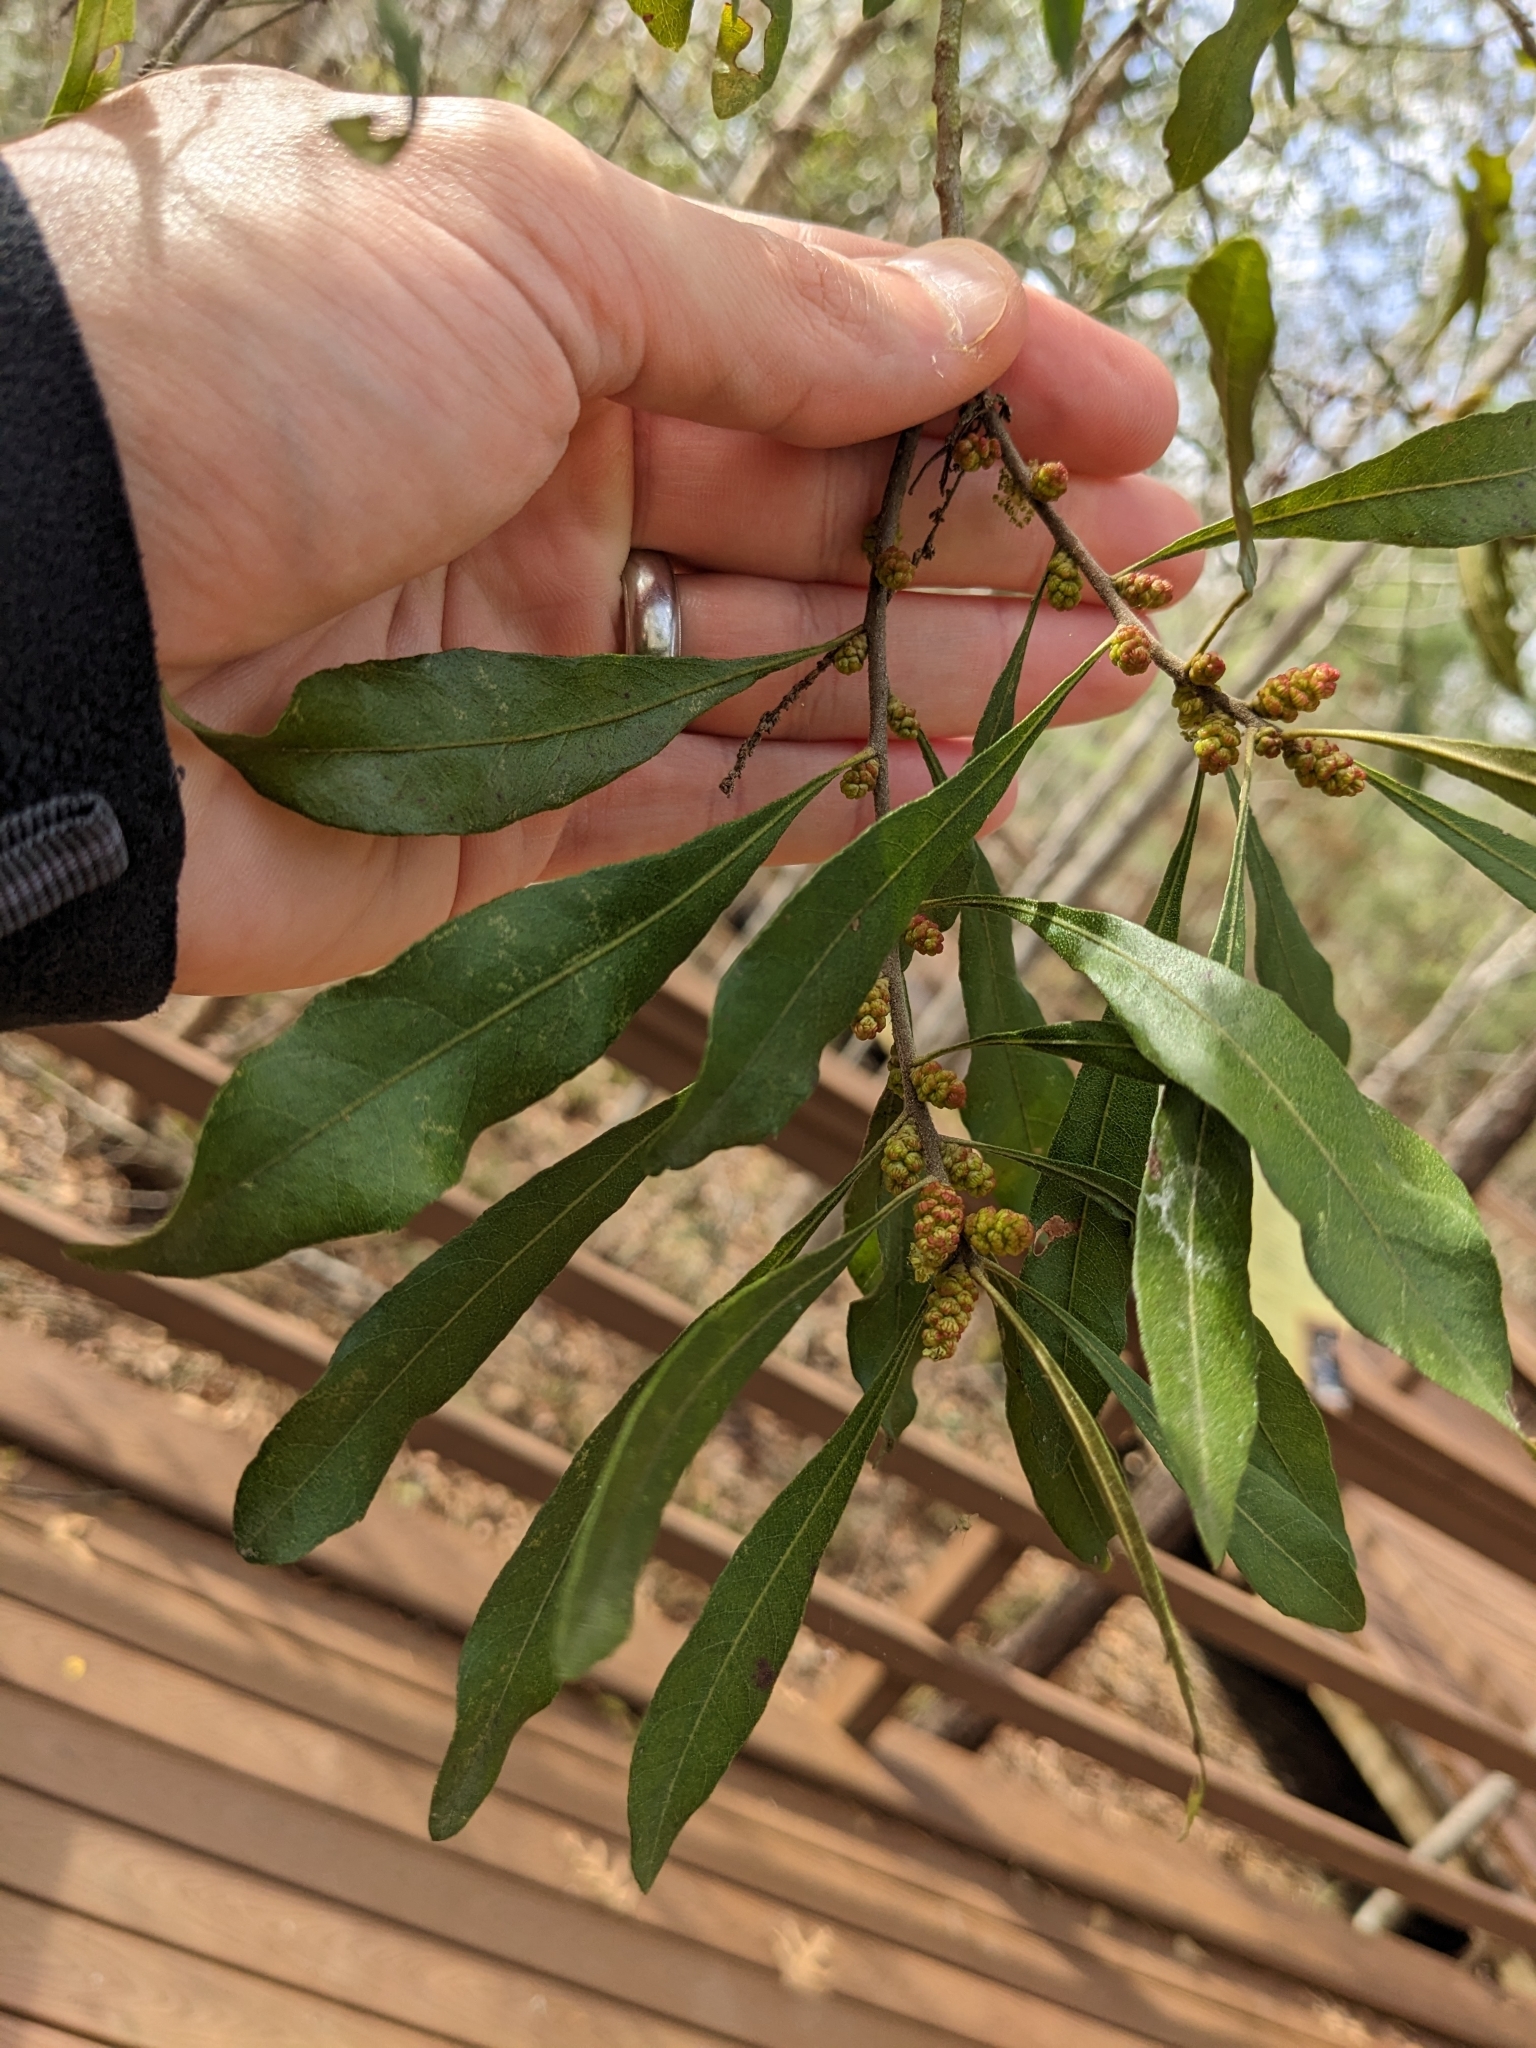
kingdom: Plantae
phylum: Tracheophyta
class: Magnoliopsida
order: Fagales
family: Myricaceae
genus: Morella
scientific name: Morella cerifera
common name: Wax myrtle
